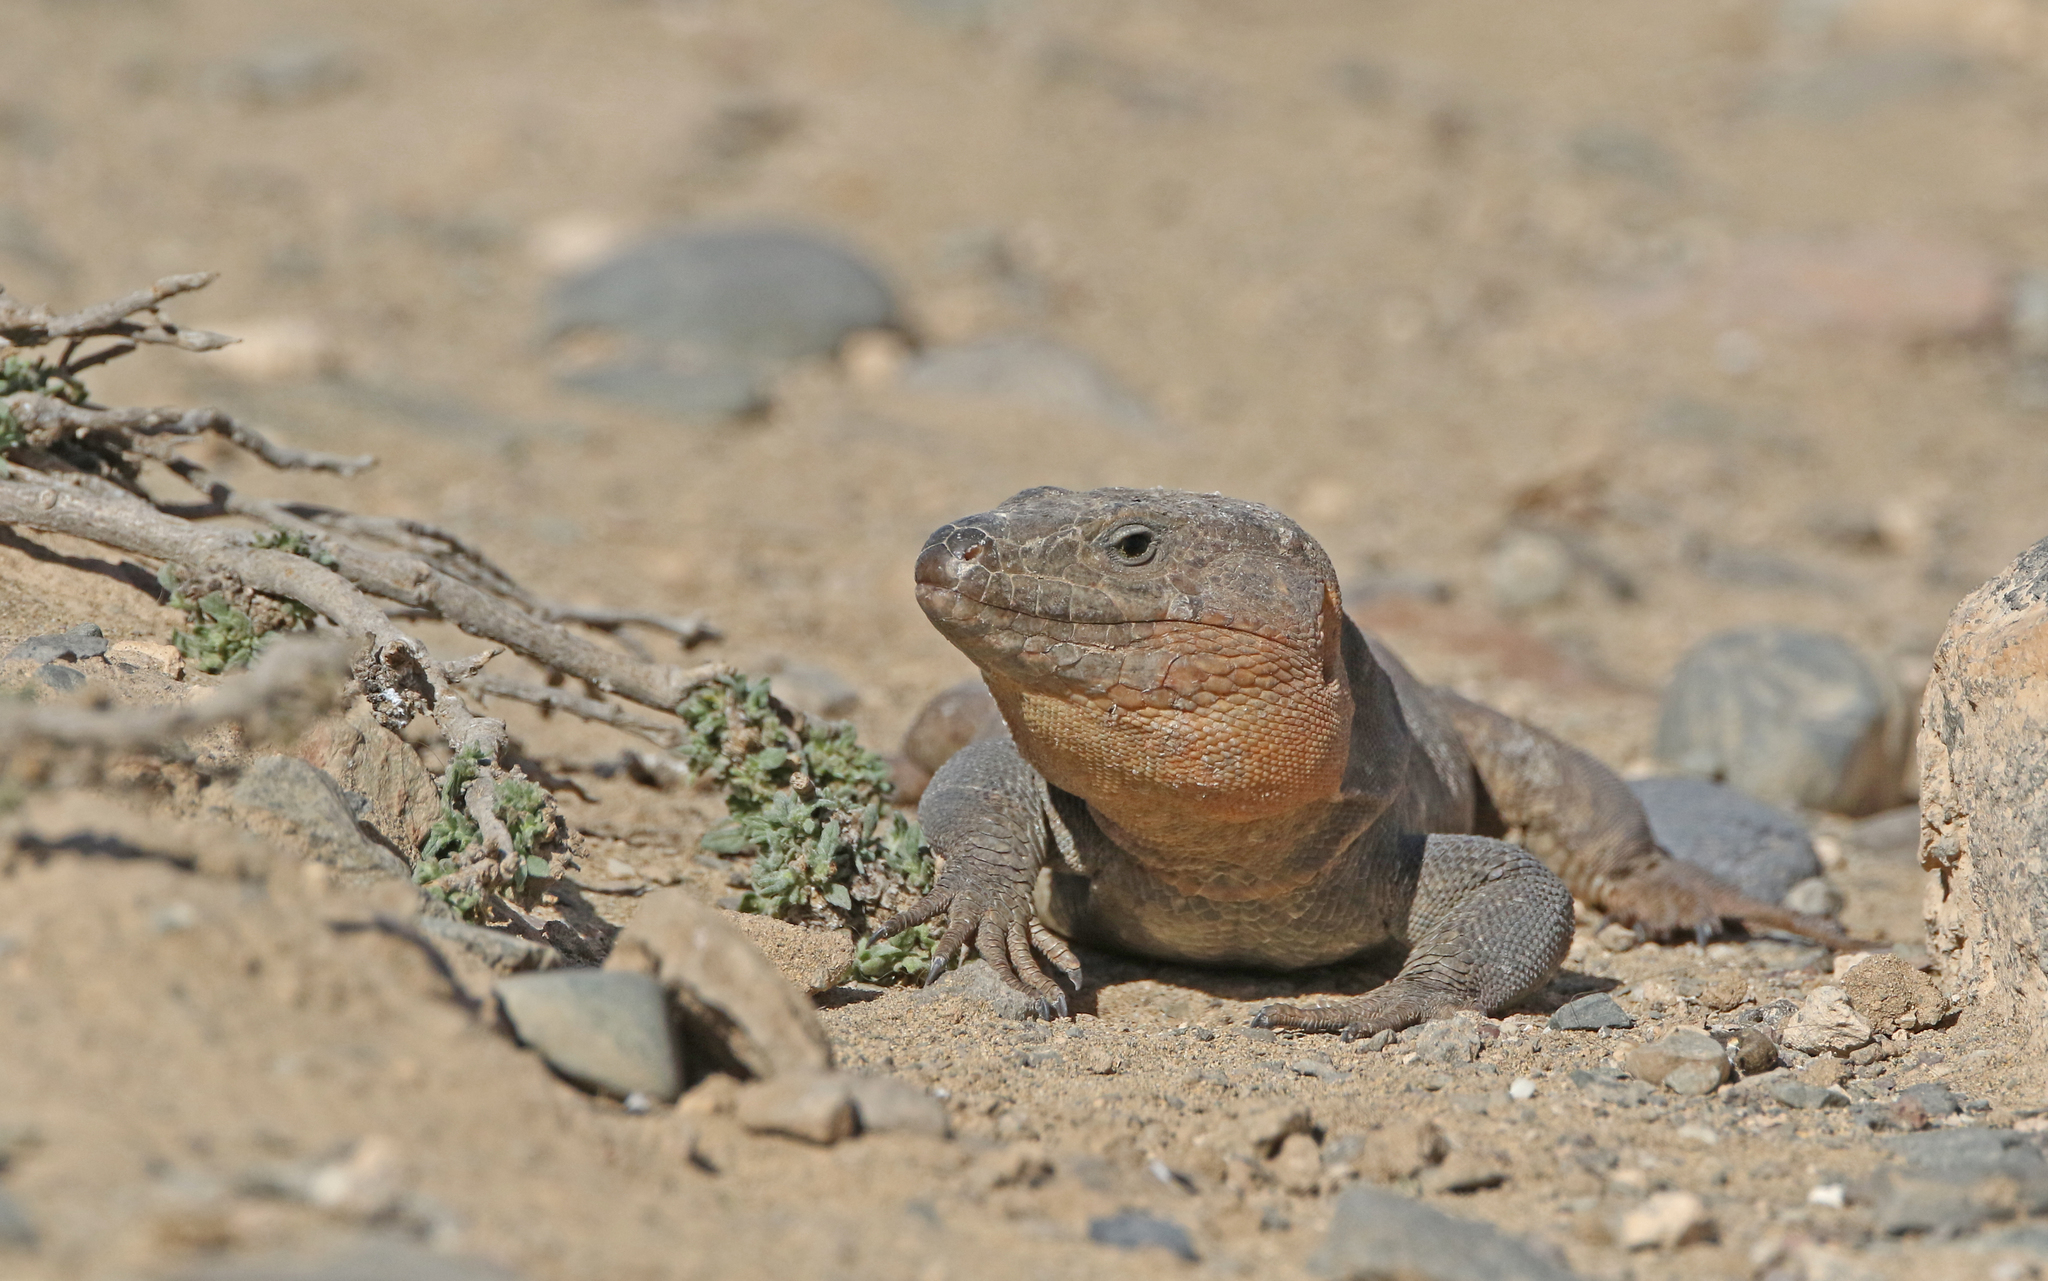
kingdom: Animalia
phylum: Chordata
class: Squamata
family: Lacertidae
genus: Gallotia
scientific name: Gallotia stehlini
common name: Gran canaria giant lizard
